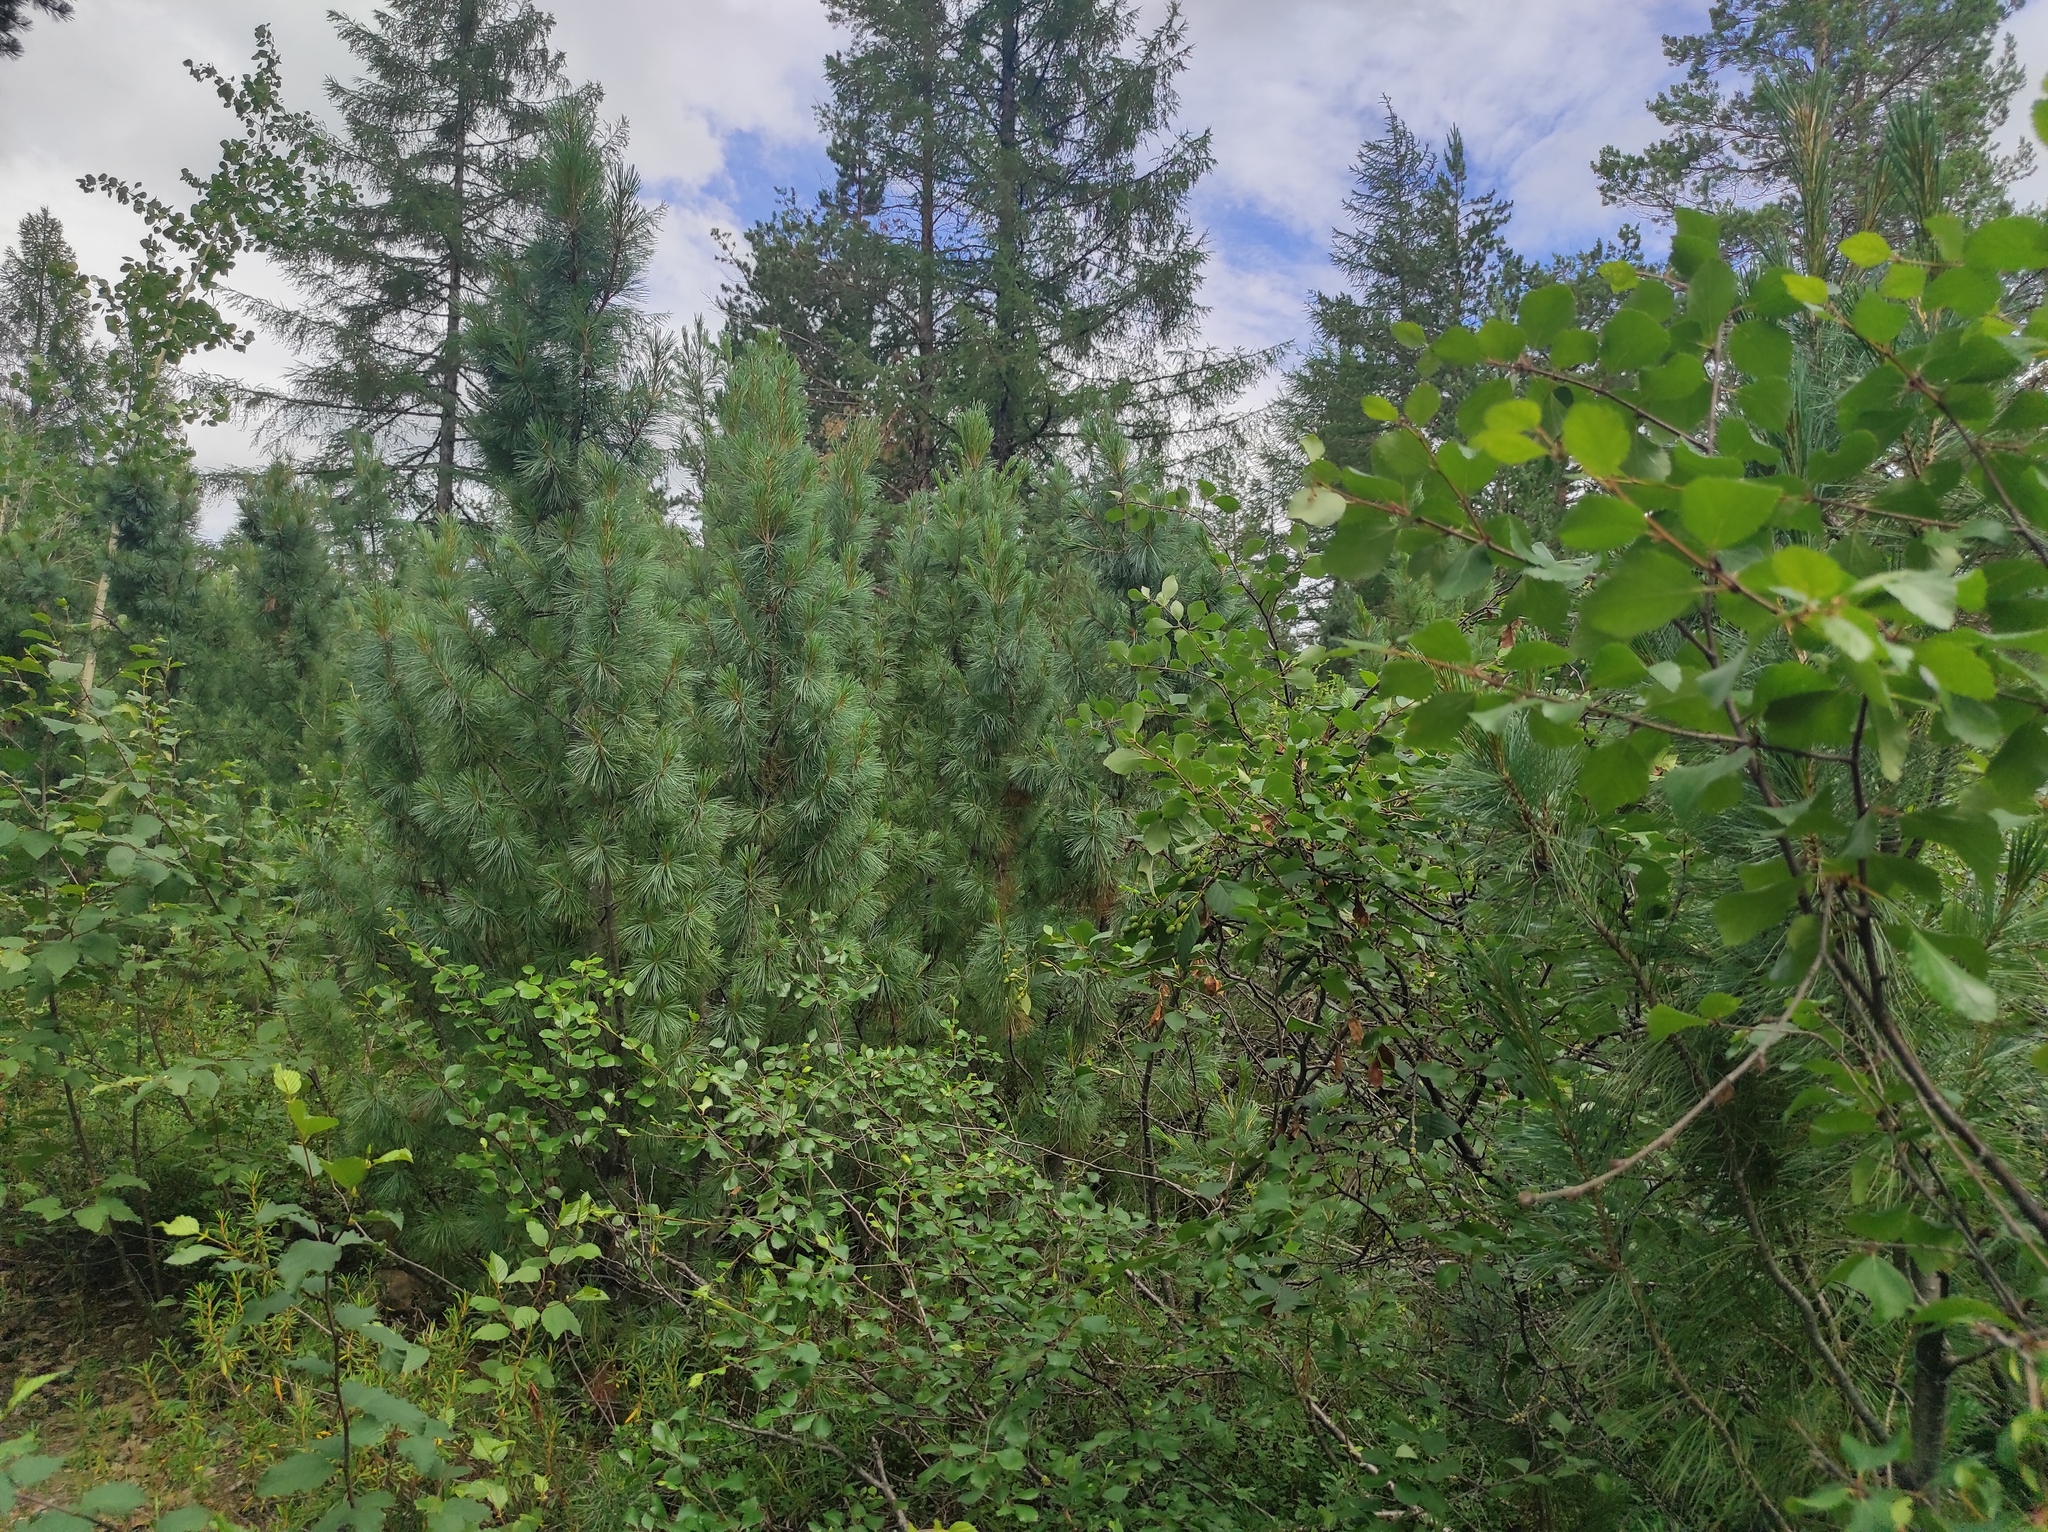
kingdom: Plantae
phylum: Tracheophyta
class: Pinopsida
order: Pinales
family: Pinaceae
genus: Pinus
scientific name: Pinus sylvestris
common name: Scots pine
